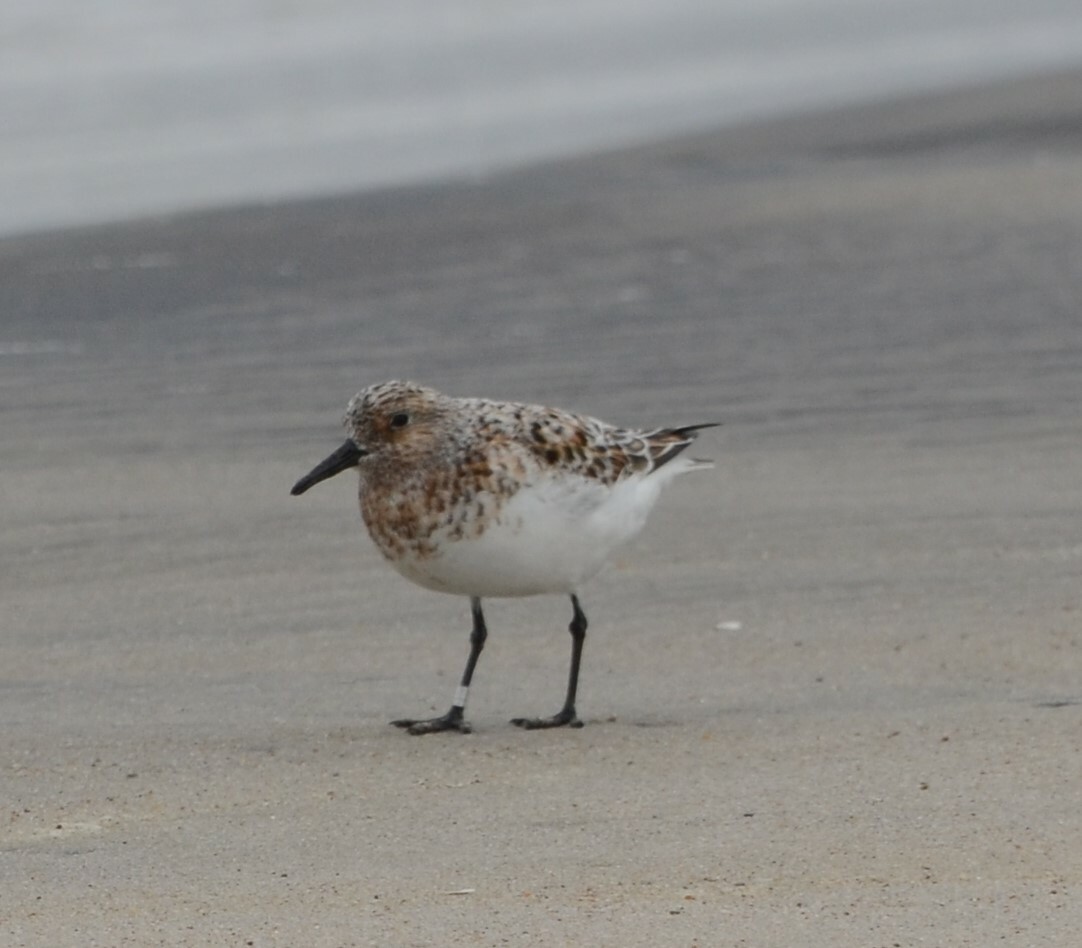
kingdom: Animalia
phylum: Chordata
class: Aves
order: Charadriiformes
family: Scolopacidae
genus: Calidris
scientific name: Calidris alba
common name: Sanderling
